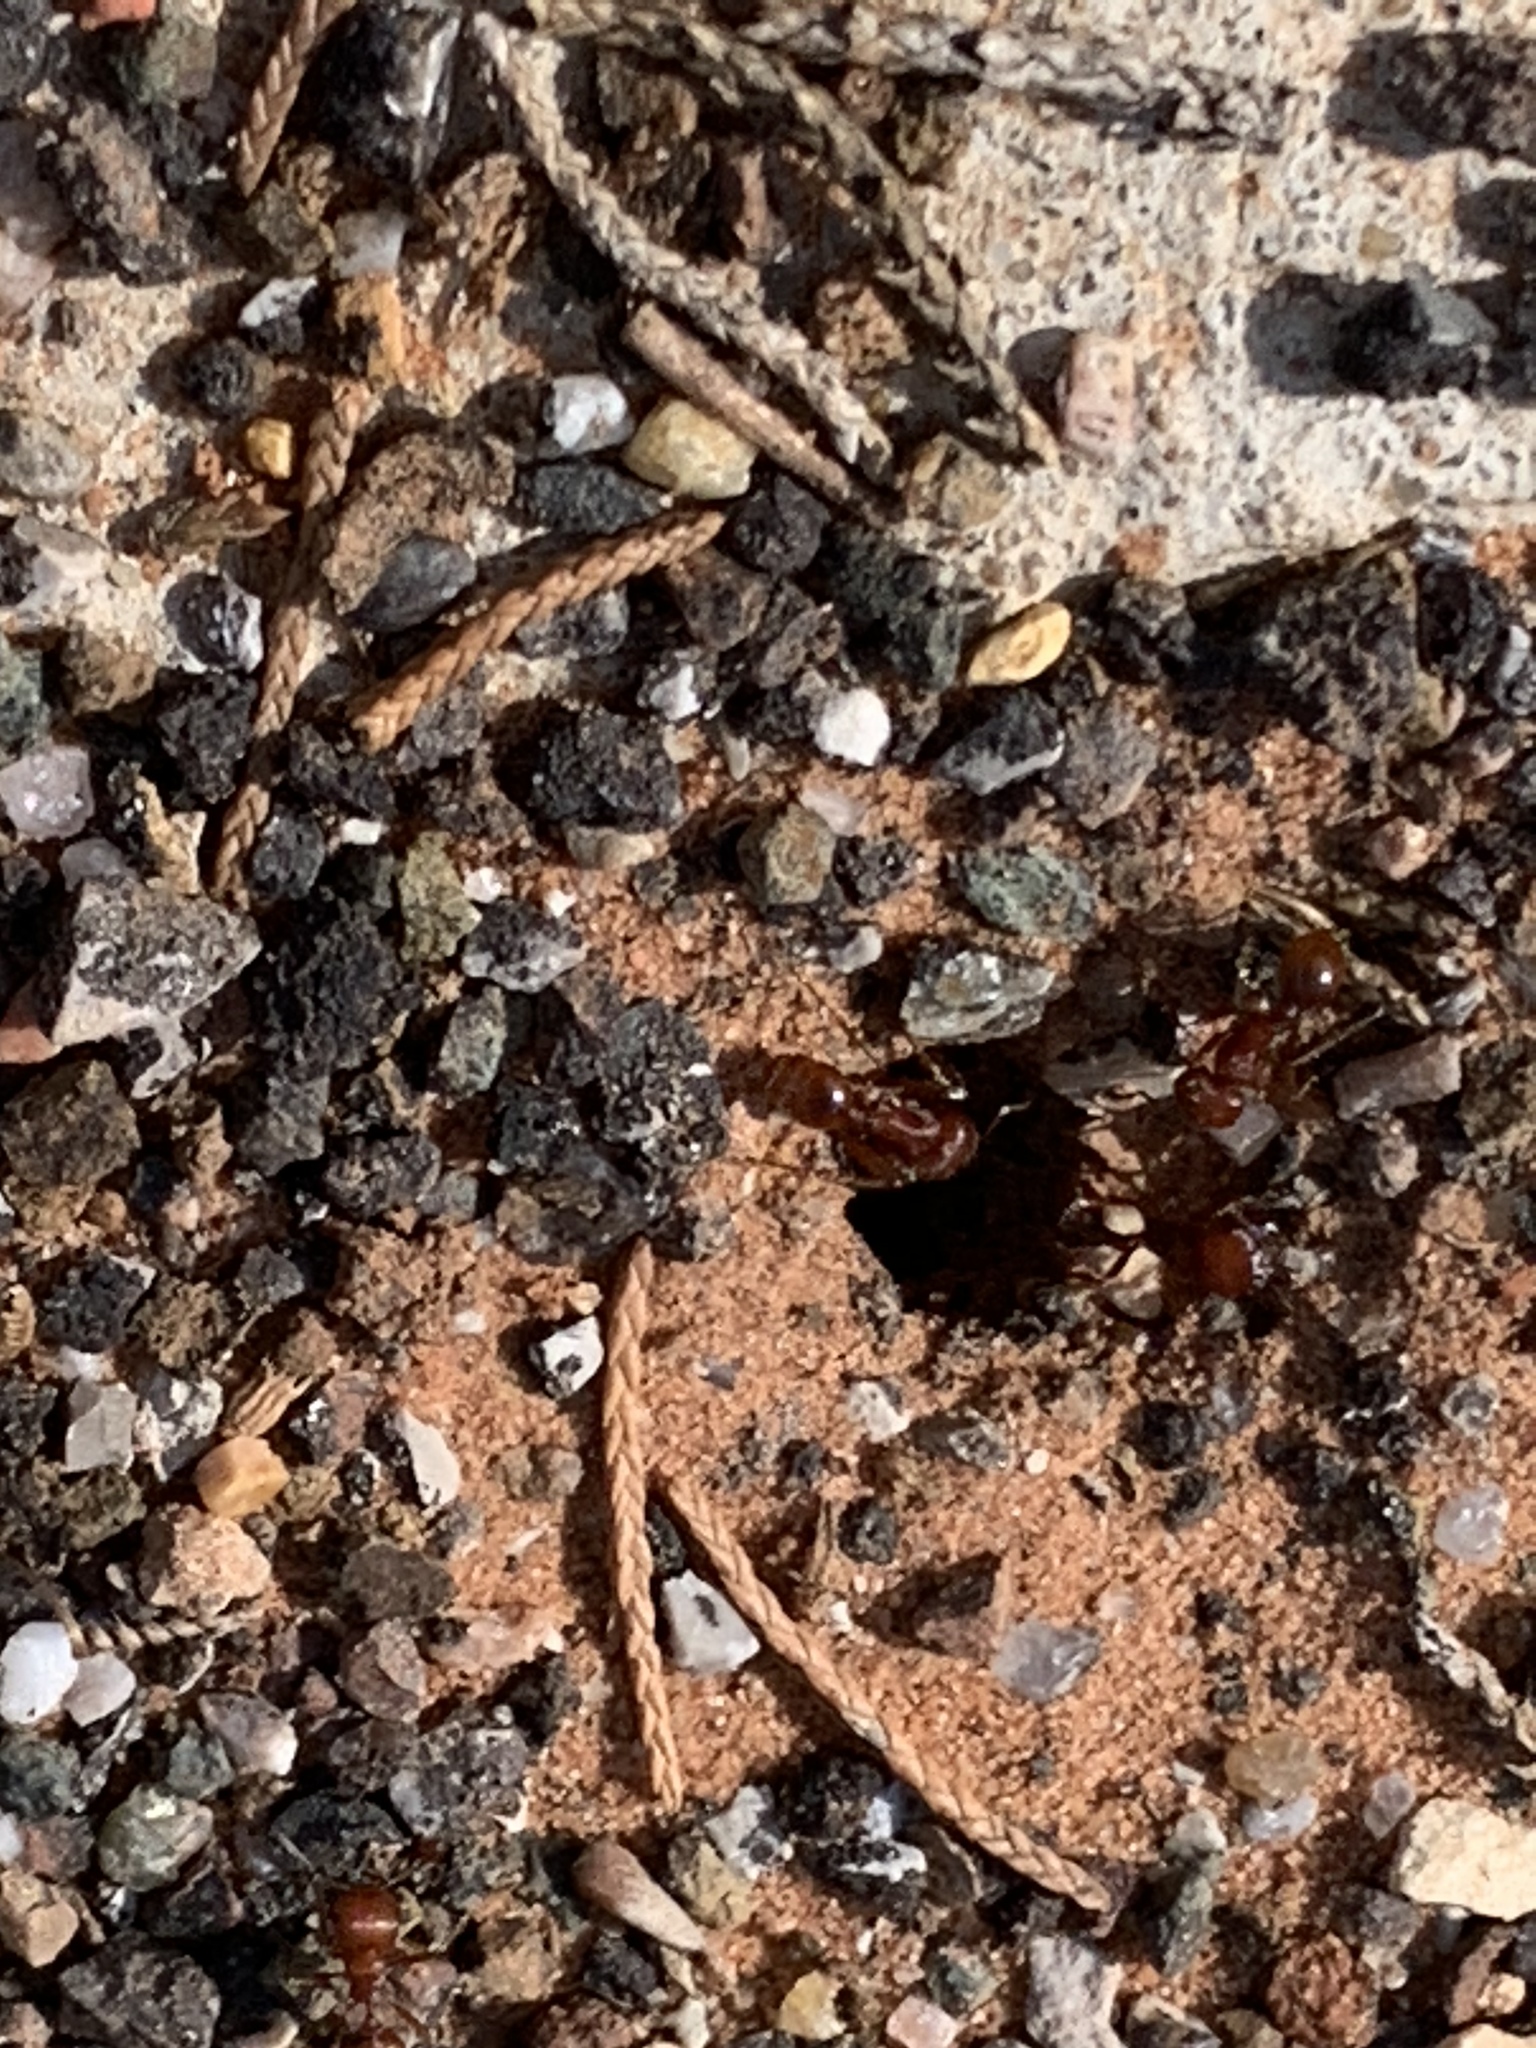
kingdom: Animalia
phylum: Arthropoda
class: Insecta
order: Hymenoptera
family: Formicidae
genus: Pogonomyrmex
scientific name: Pogonomyrmex barbatus
